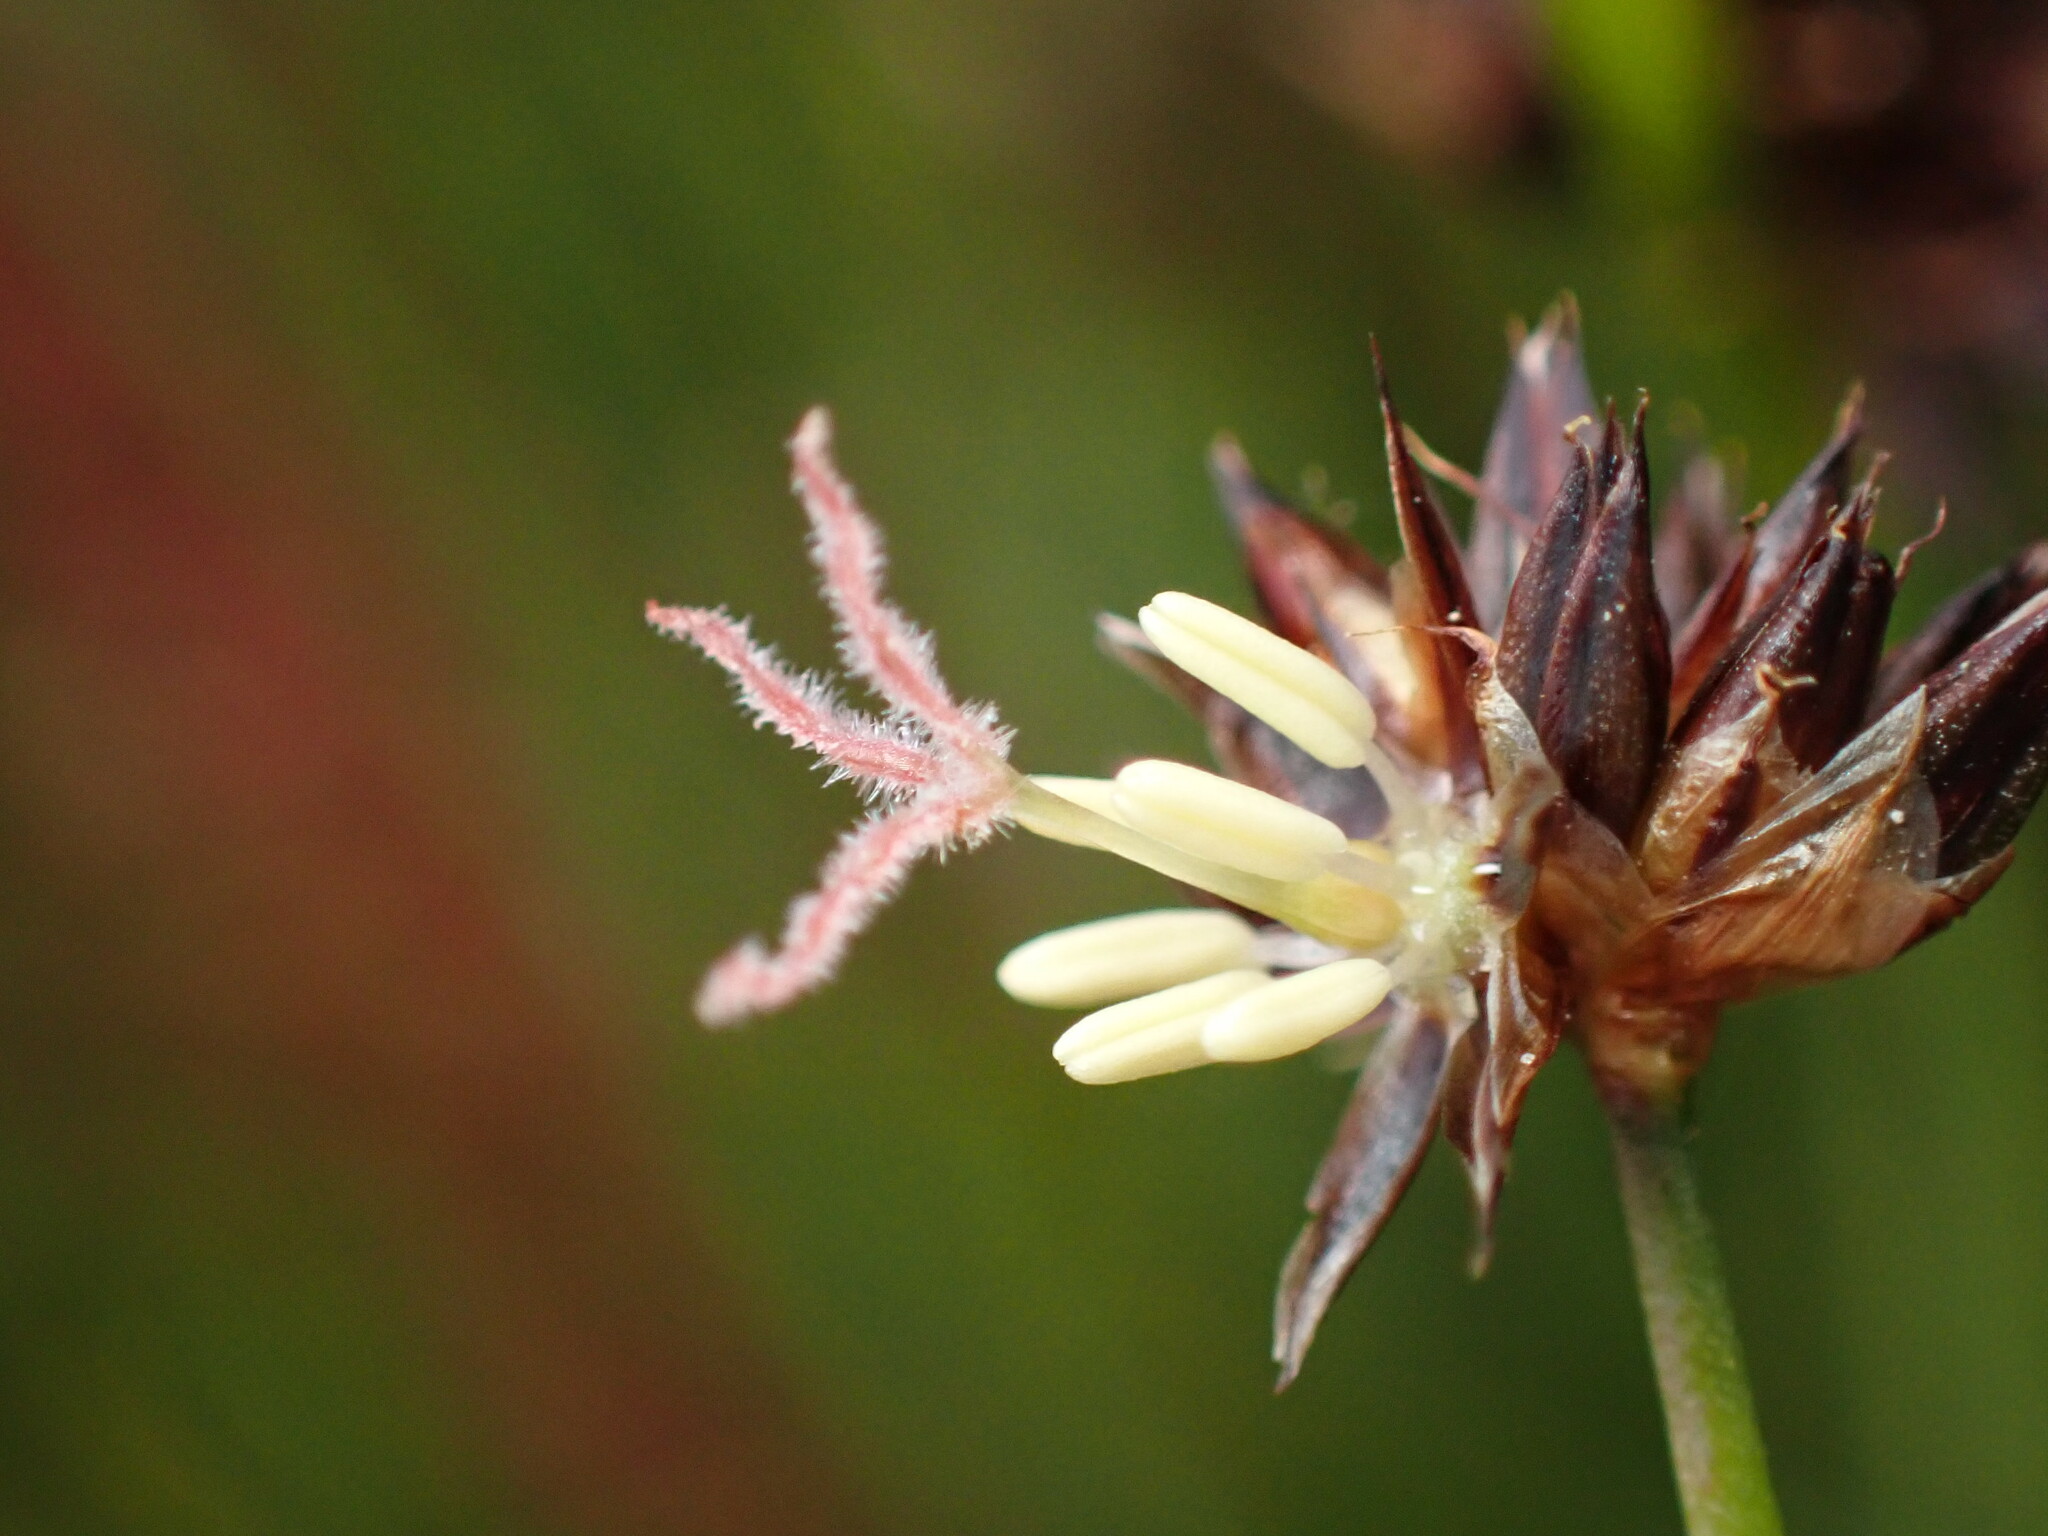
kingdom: Plantae
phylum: Tracheophyta
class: Liliopsida
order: Poales
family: Juncaceae
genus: Juncus
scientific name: Juncus xiphioides
